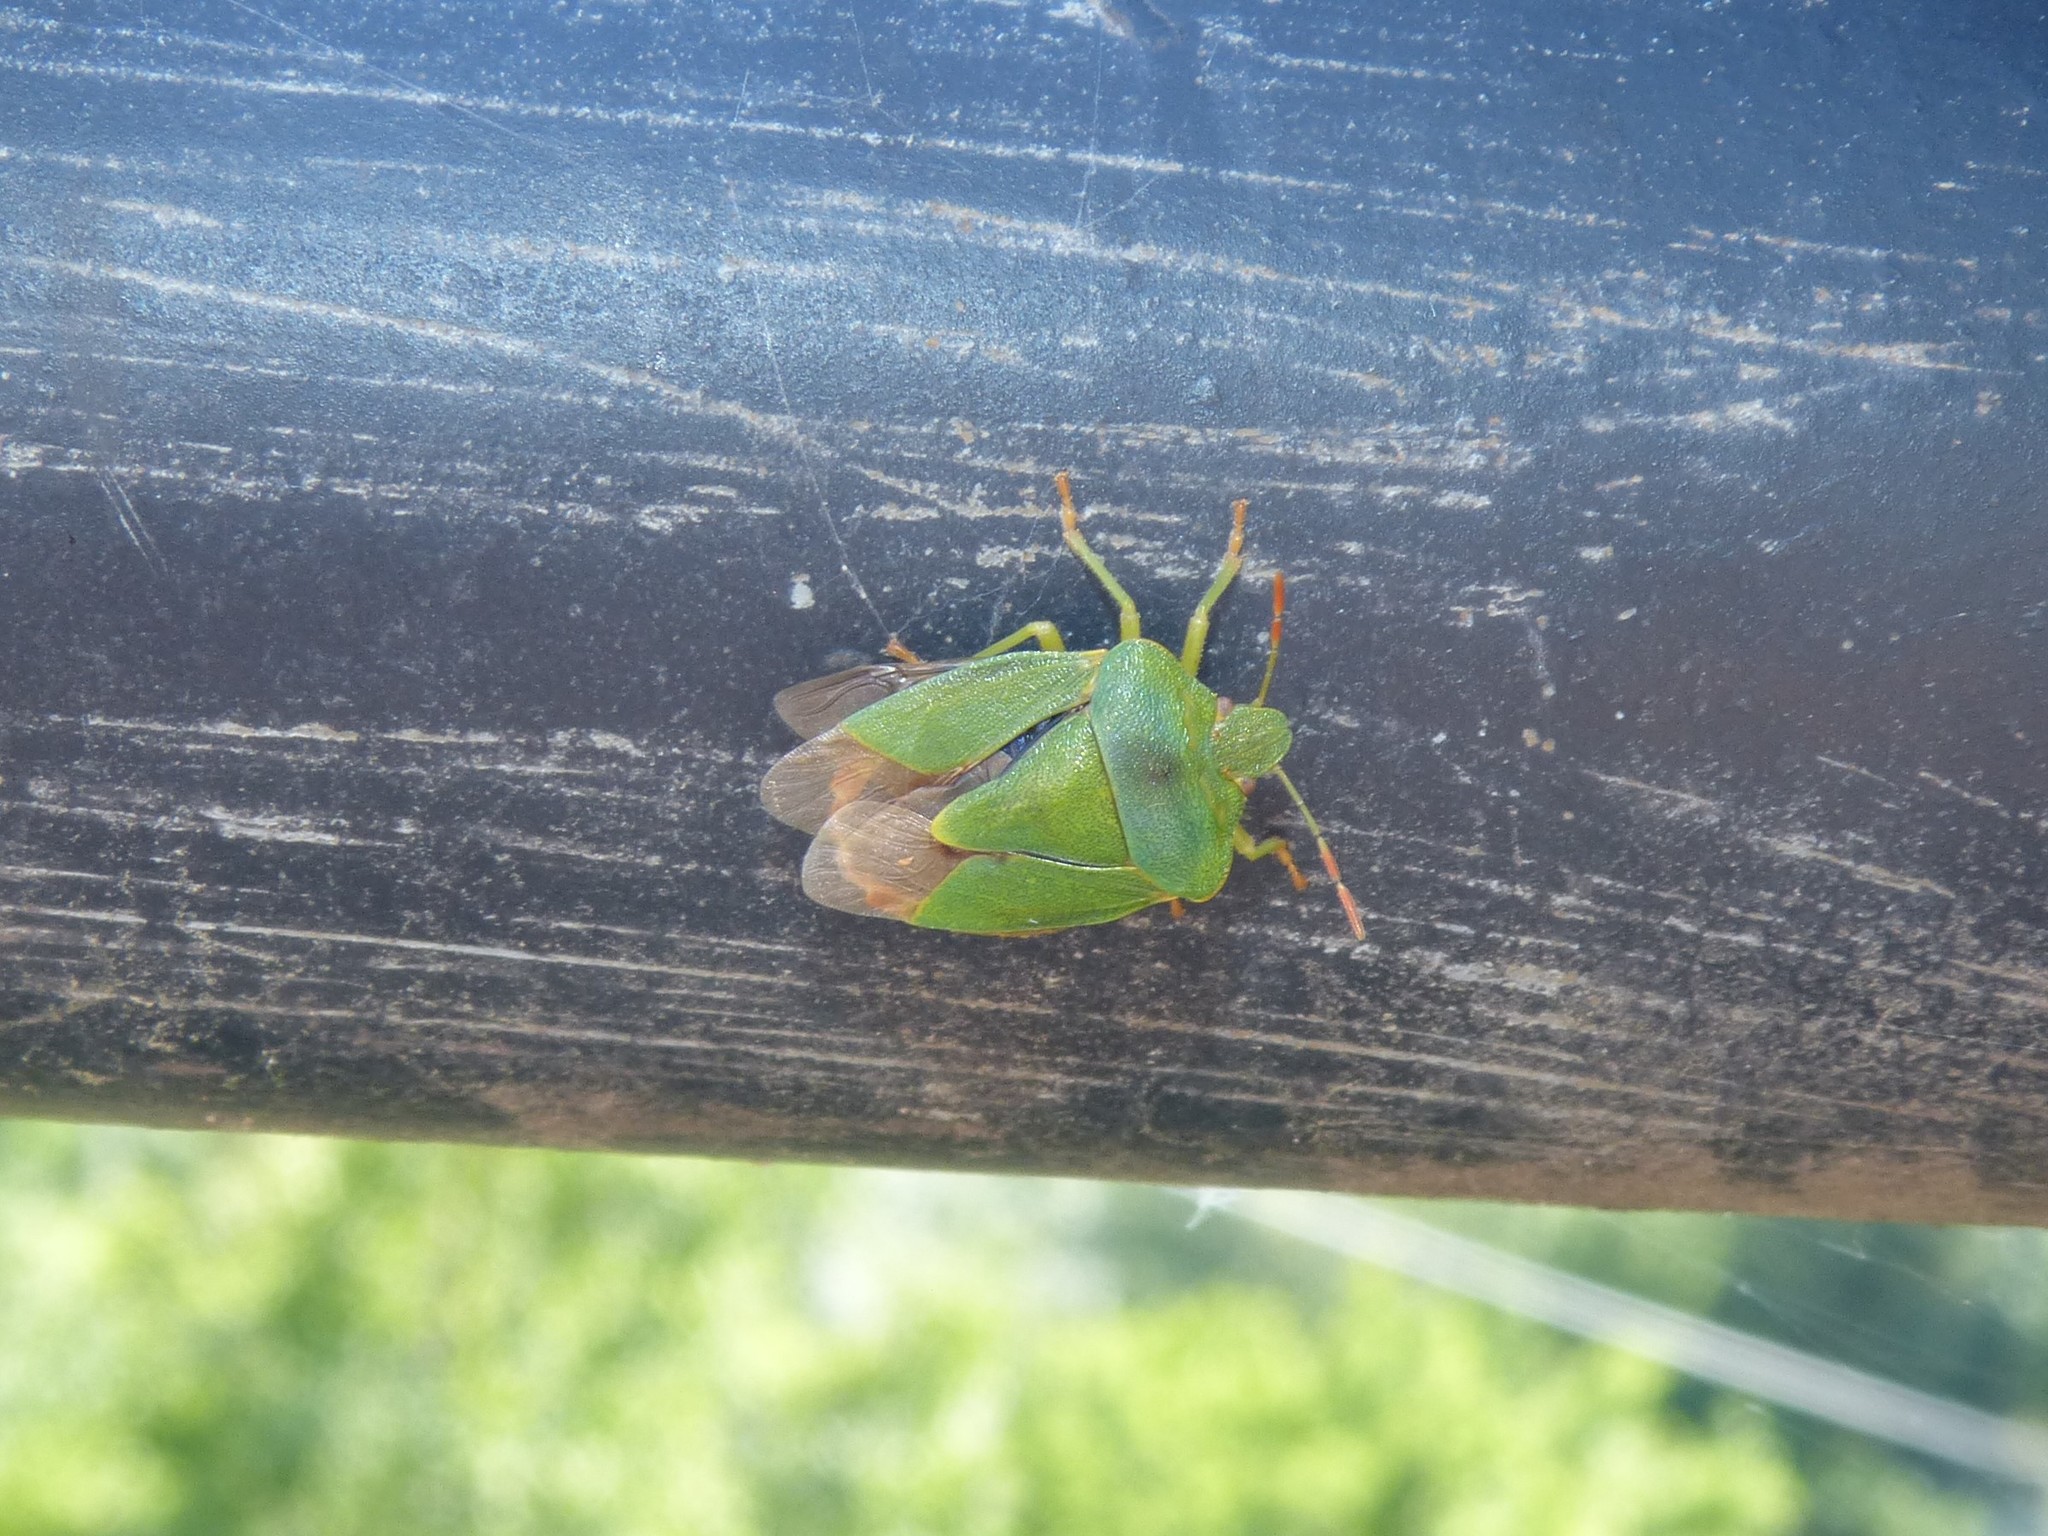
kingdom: Animalia
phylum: Arthropoda
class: Insecta
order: Hemiptera
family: Pentatomidae
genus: Palomena
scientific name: Palomena prasina
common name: Green shieldbug
